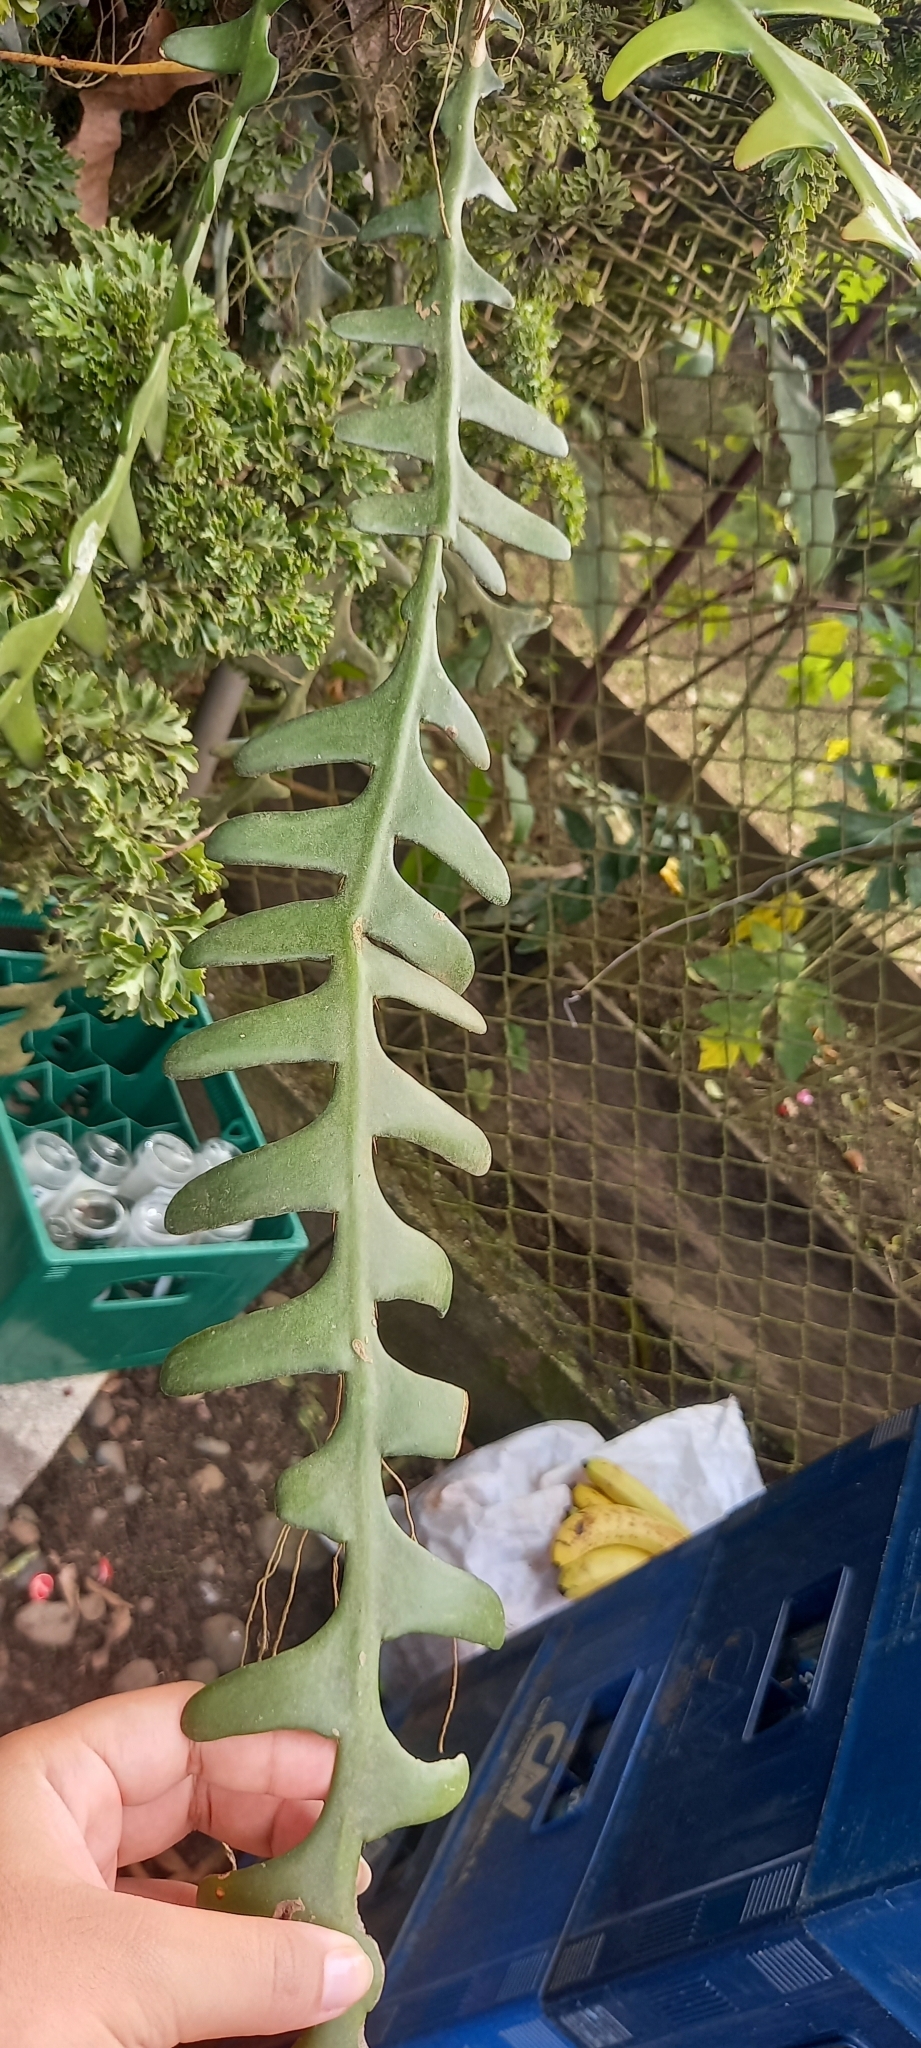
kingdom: Plantae
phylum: Tracheophyta
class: Magnoliopsida
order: Caryophyllales
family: Cactaceae
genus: Selenicereus
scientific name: Selenicereus anthonyanus
